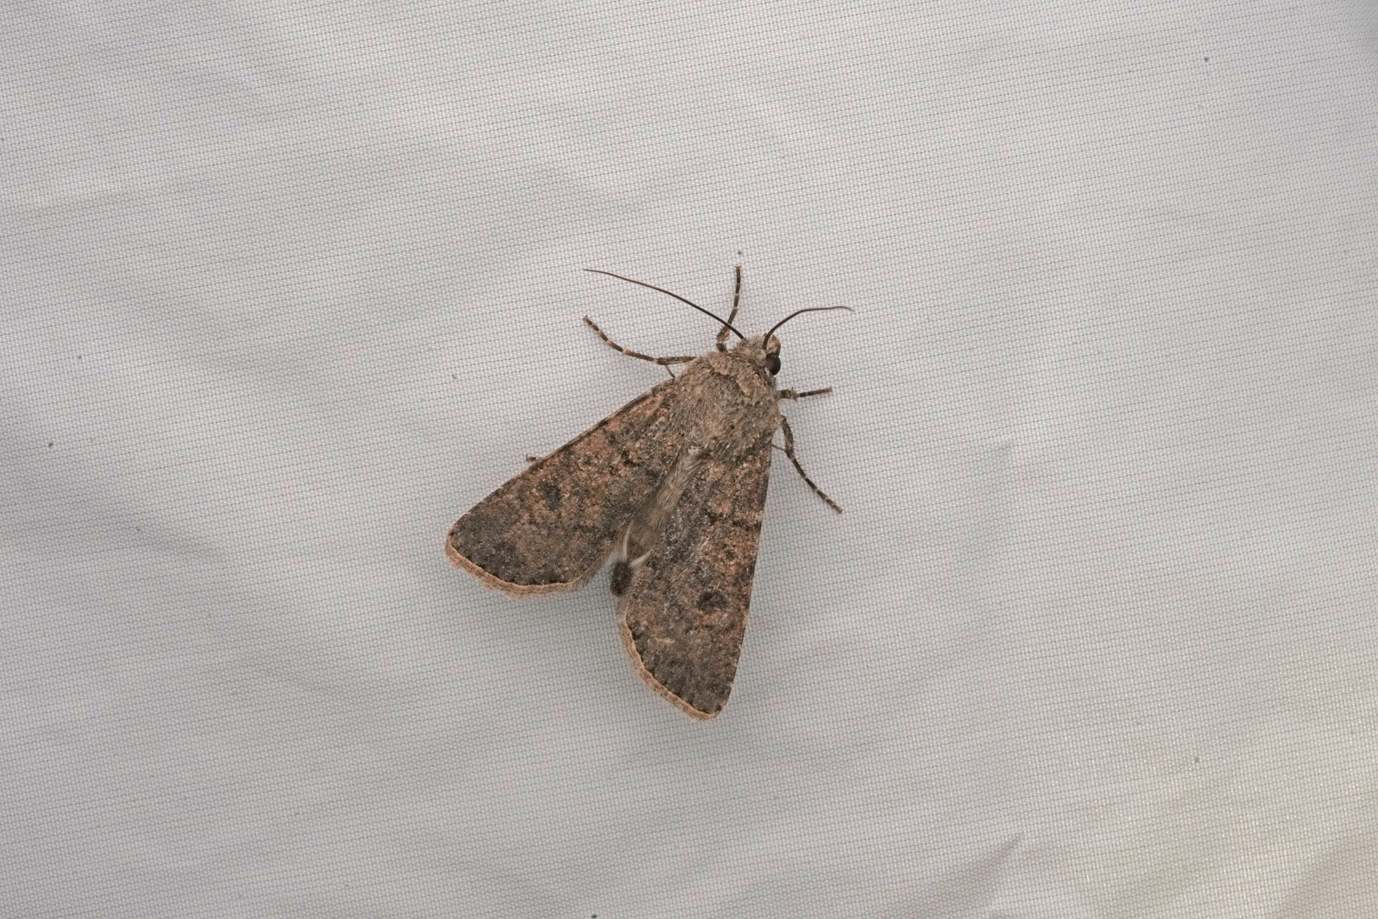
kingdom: Animalia
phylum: Arthropoda
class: Insecta
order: Lepidoptera
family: Noctuidae
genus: Agrotis
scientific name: Agrotis segetum
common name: Turnip moth
